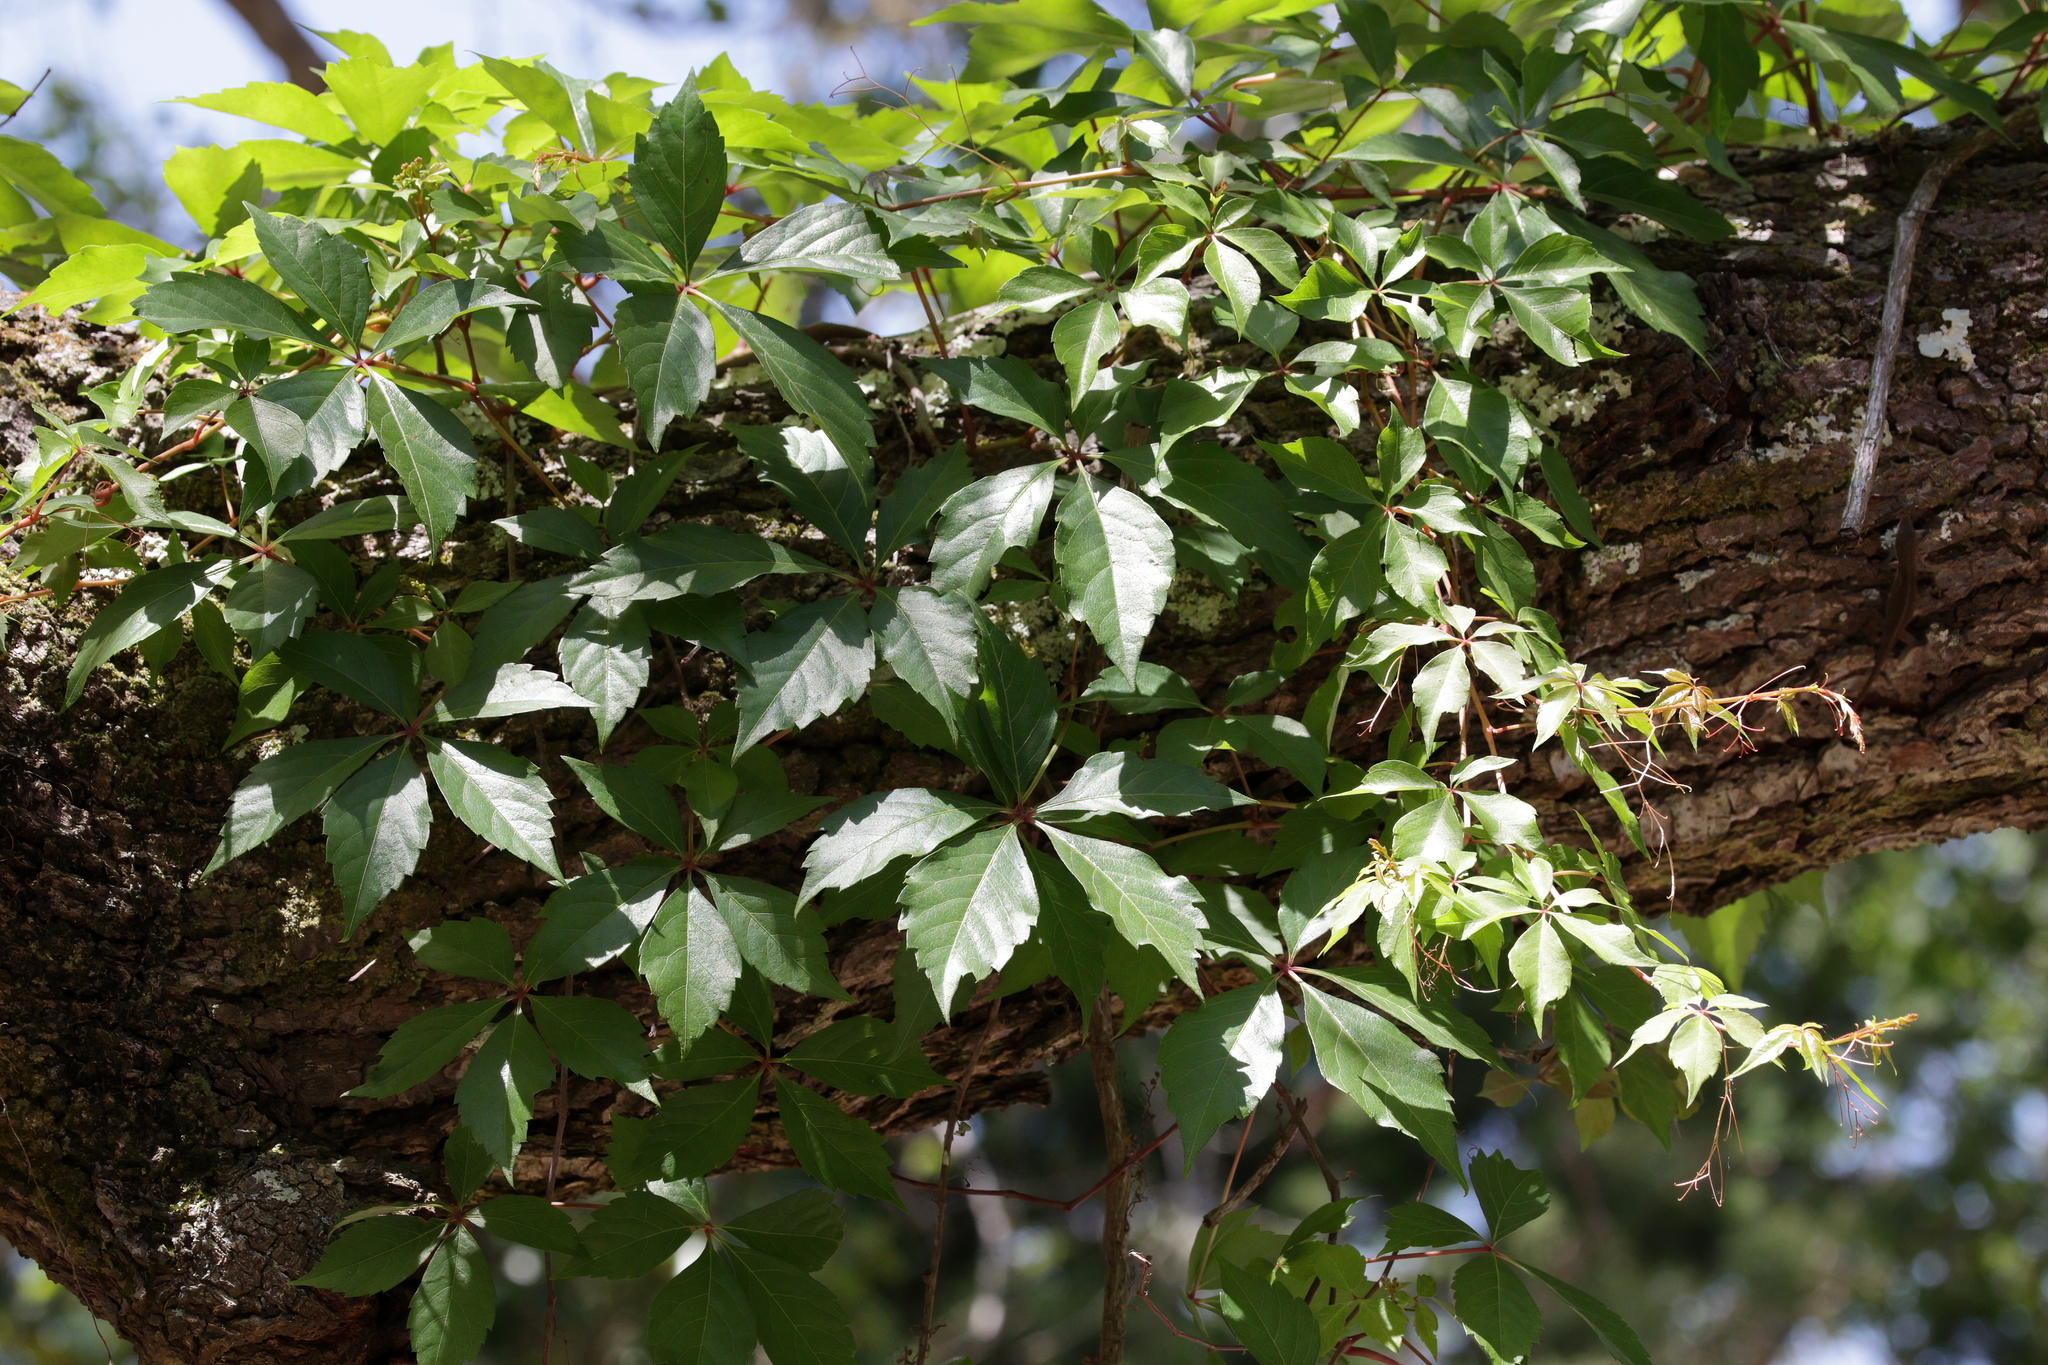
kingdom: Plantae
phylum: Tracheophyta
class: Magnoliopsida
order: Vitales
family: Vitaceae
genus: Parthenocissus
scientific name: Parthenocissus quinquefolia
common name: Virginia-creeper
